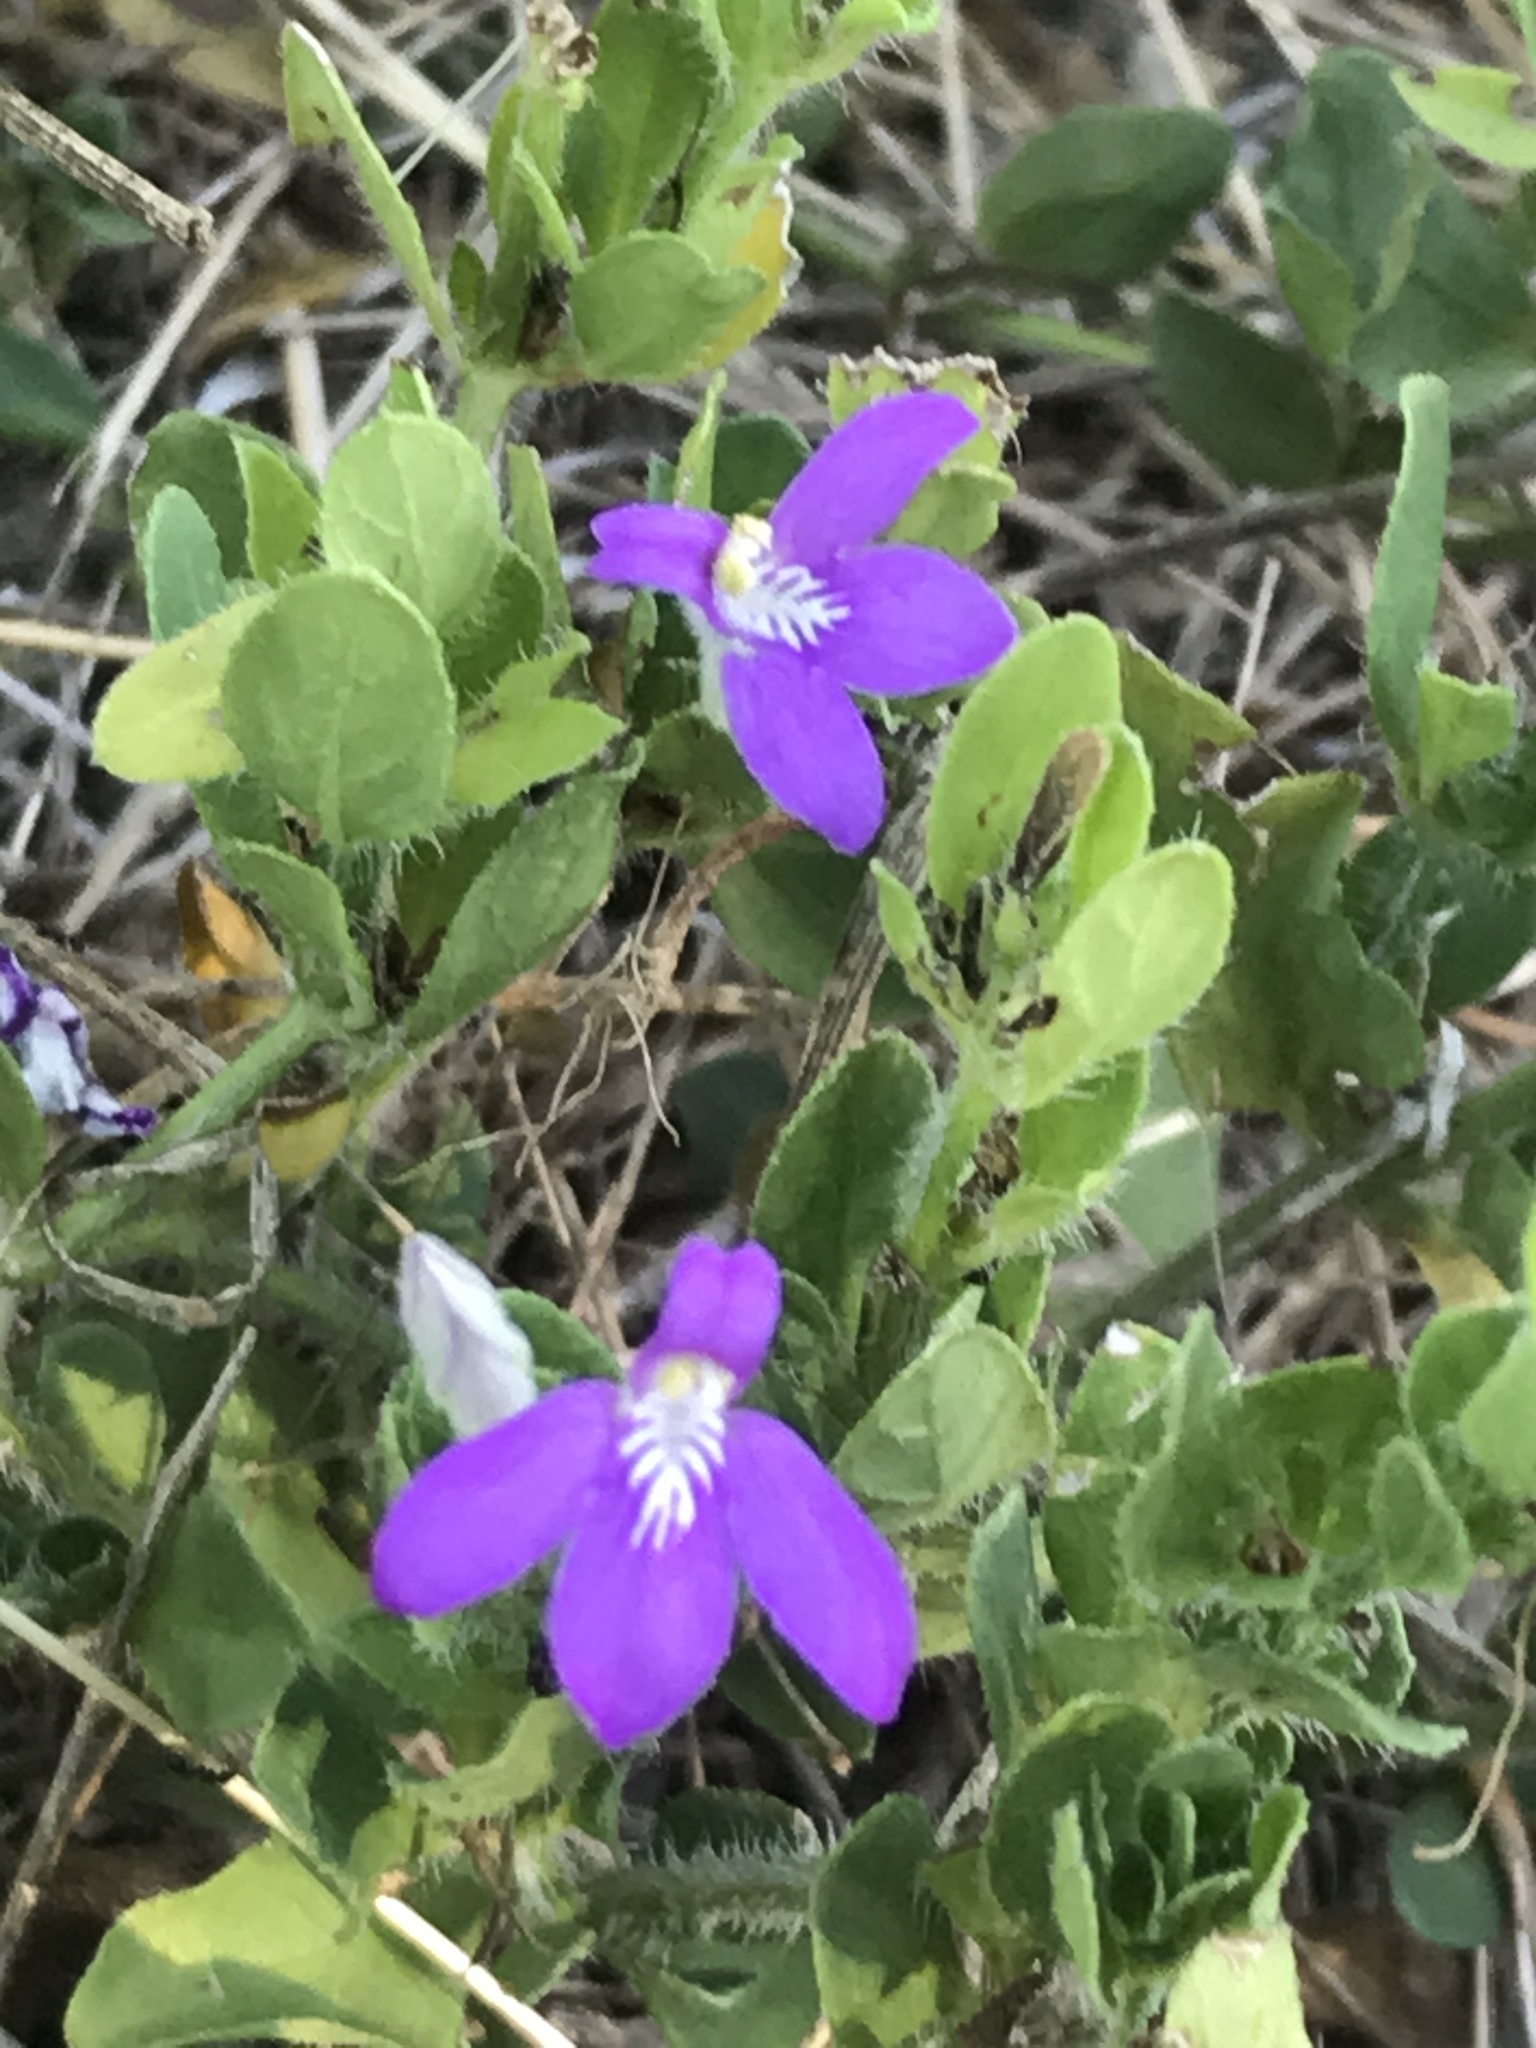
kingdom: Plantae
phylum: Tracheophyta
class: Magnoliopsida
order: Lamiales
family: Acanthaceae
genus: Justicia
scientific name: Justicia pilosella
